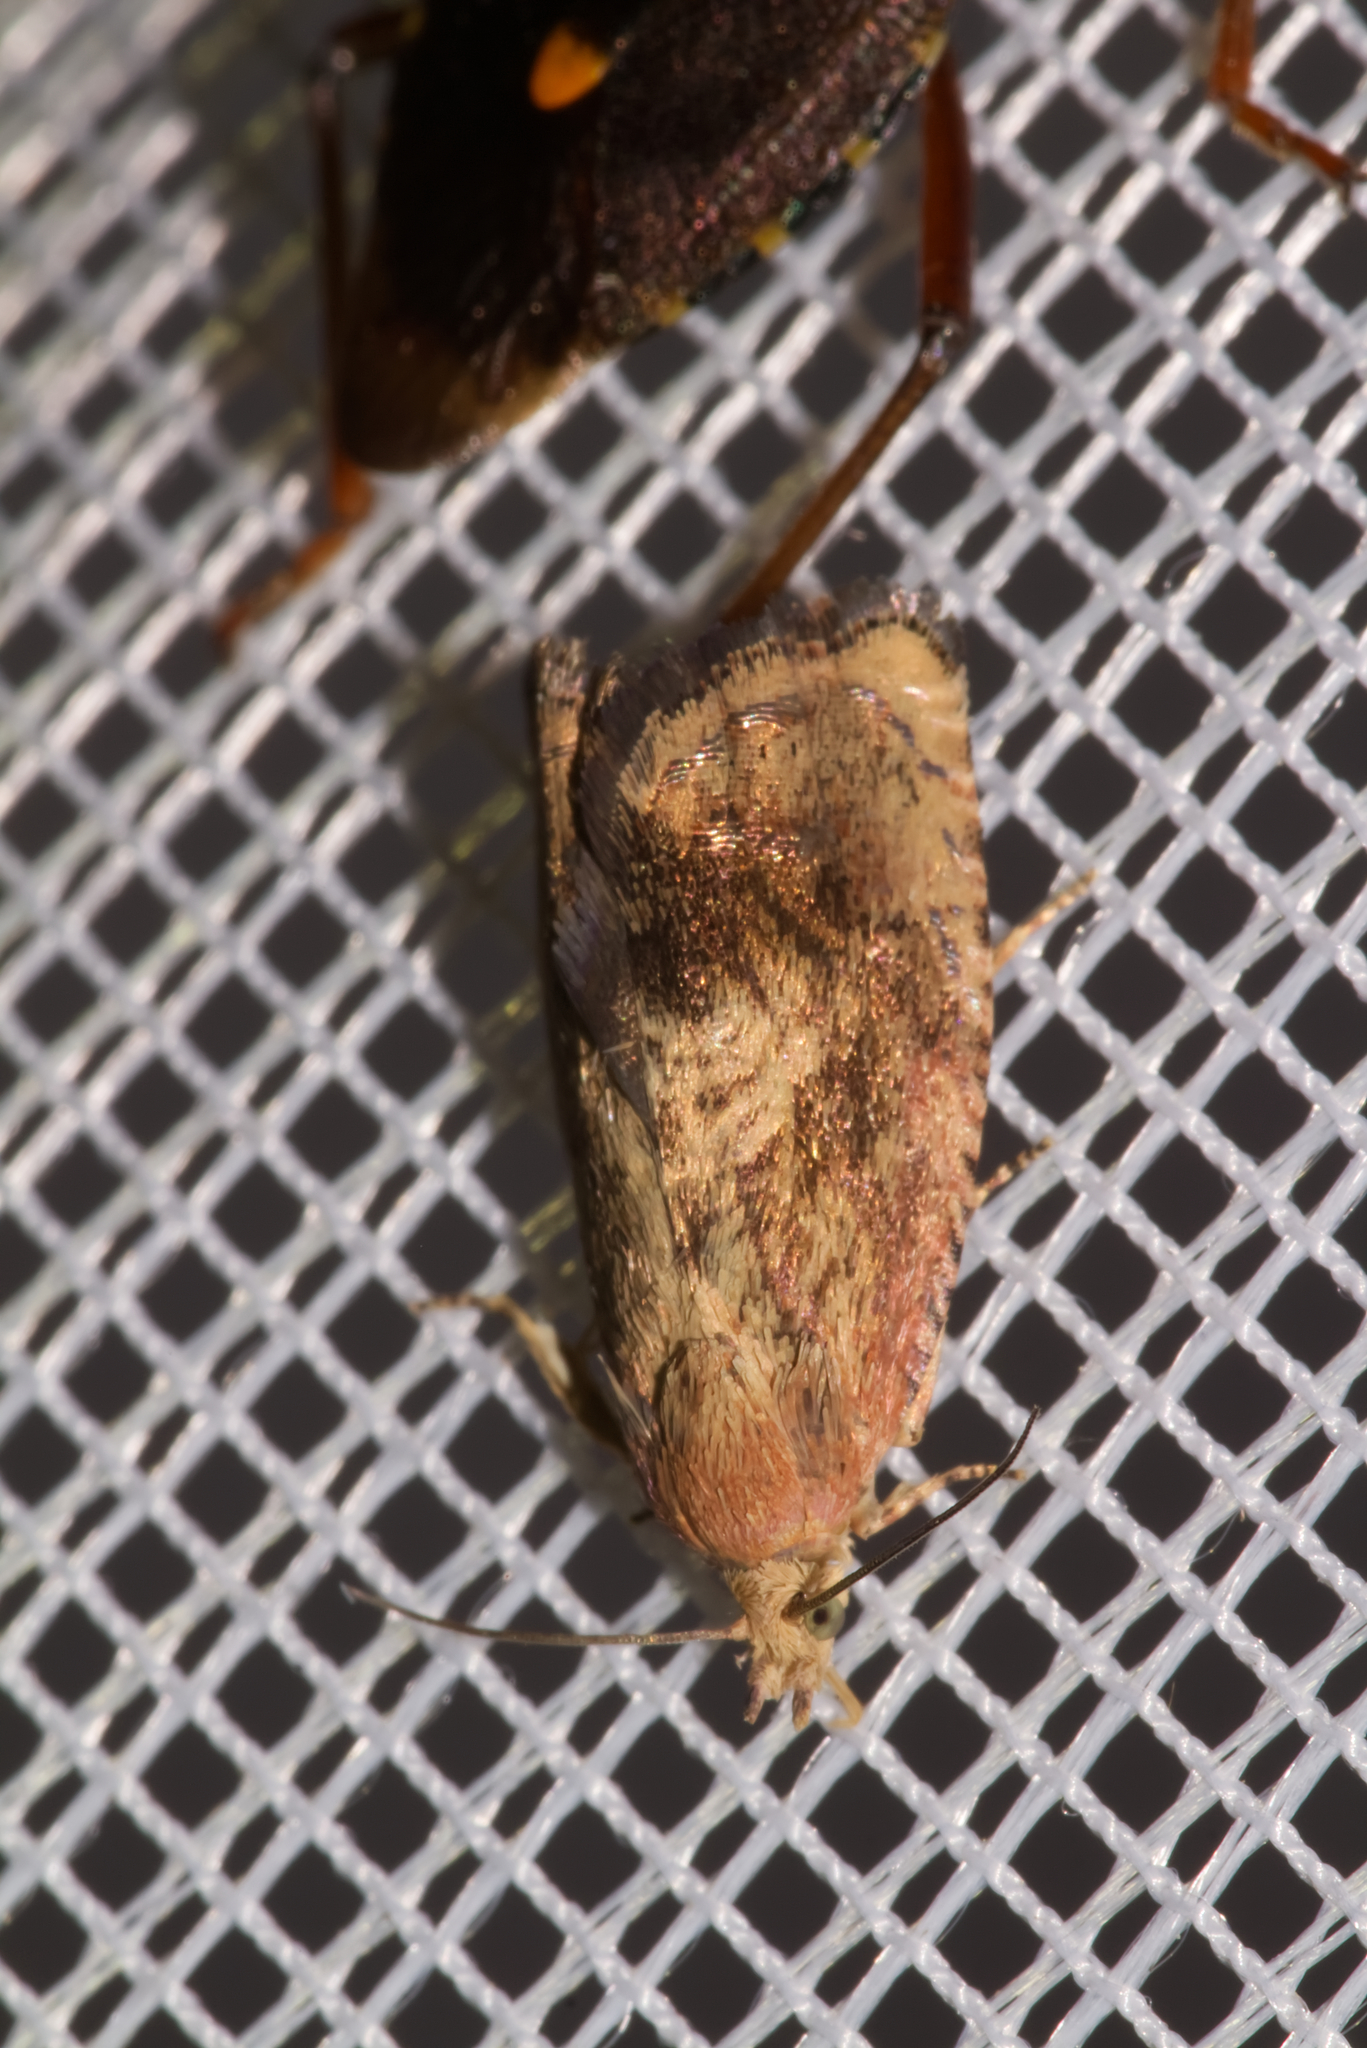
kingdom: Animalia
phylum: Arthropoda
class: Insecta
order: Lepidoptera
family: Tortricidae
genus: Cydia
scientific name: Cydia amplana
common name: Vagrant piercer
